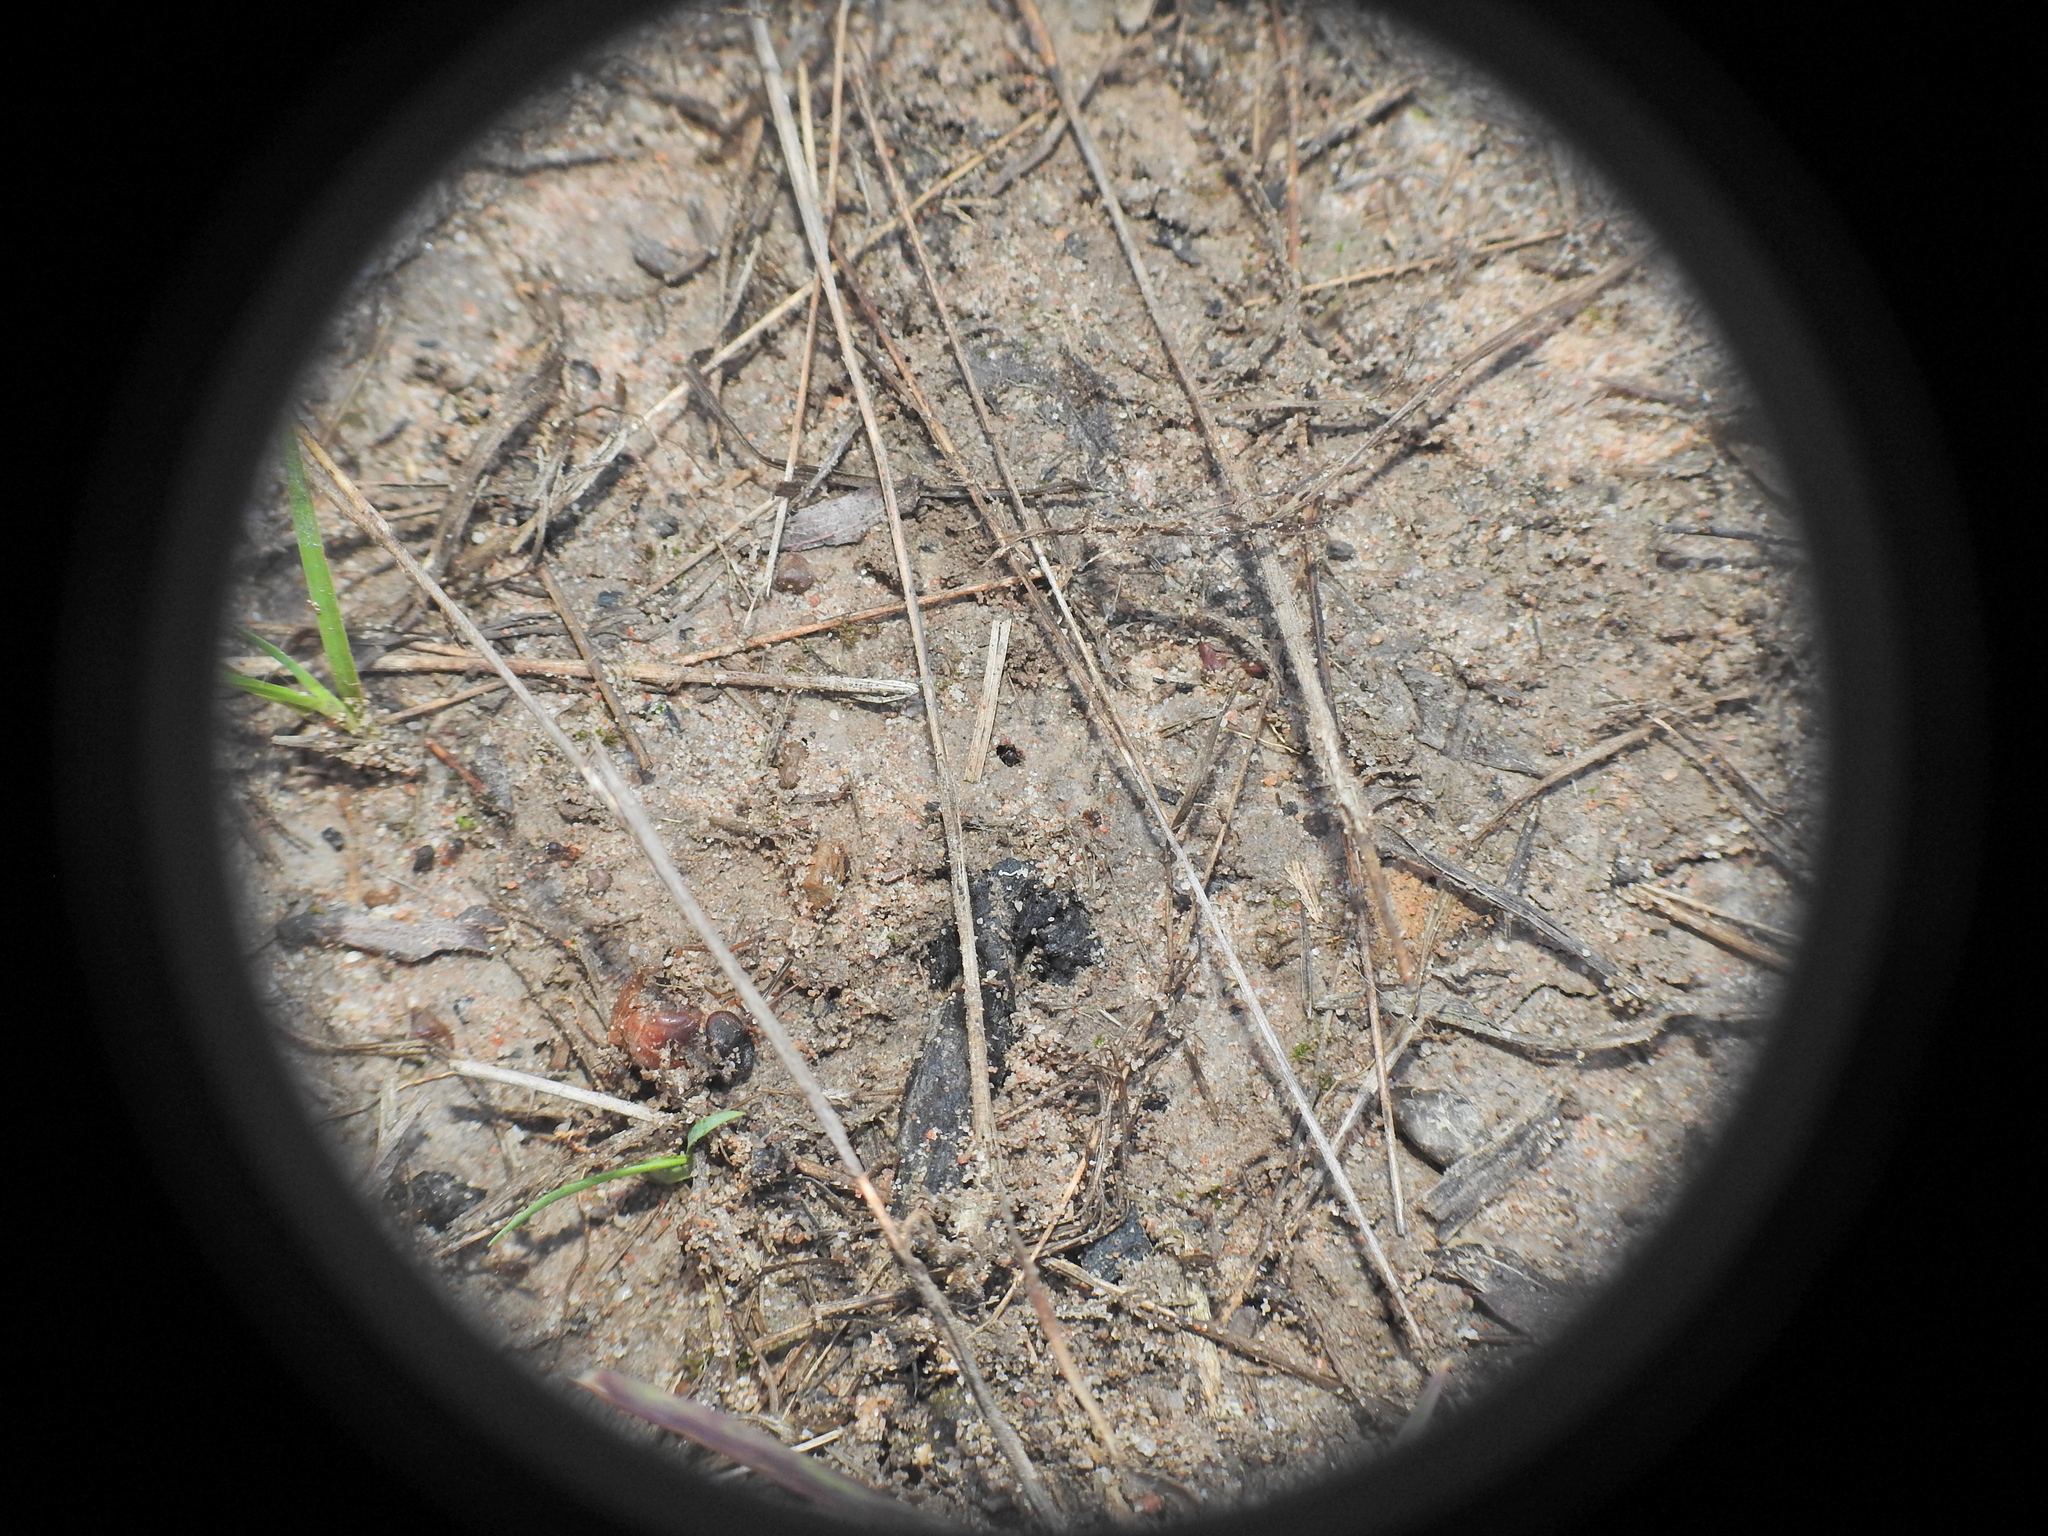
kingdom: Animalia
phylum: Arthropoda
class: Insecta
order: Hymenoptera
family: Formicidae
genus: Pheidole
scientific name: Pheidole longiceps
